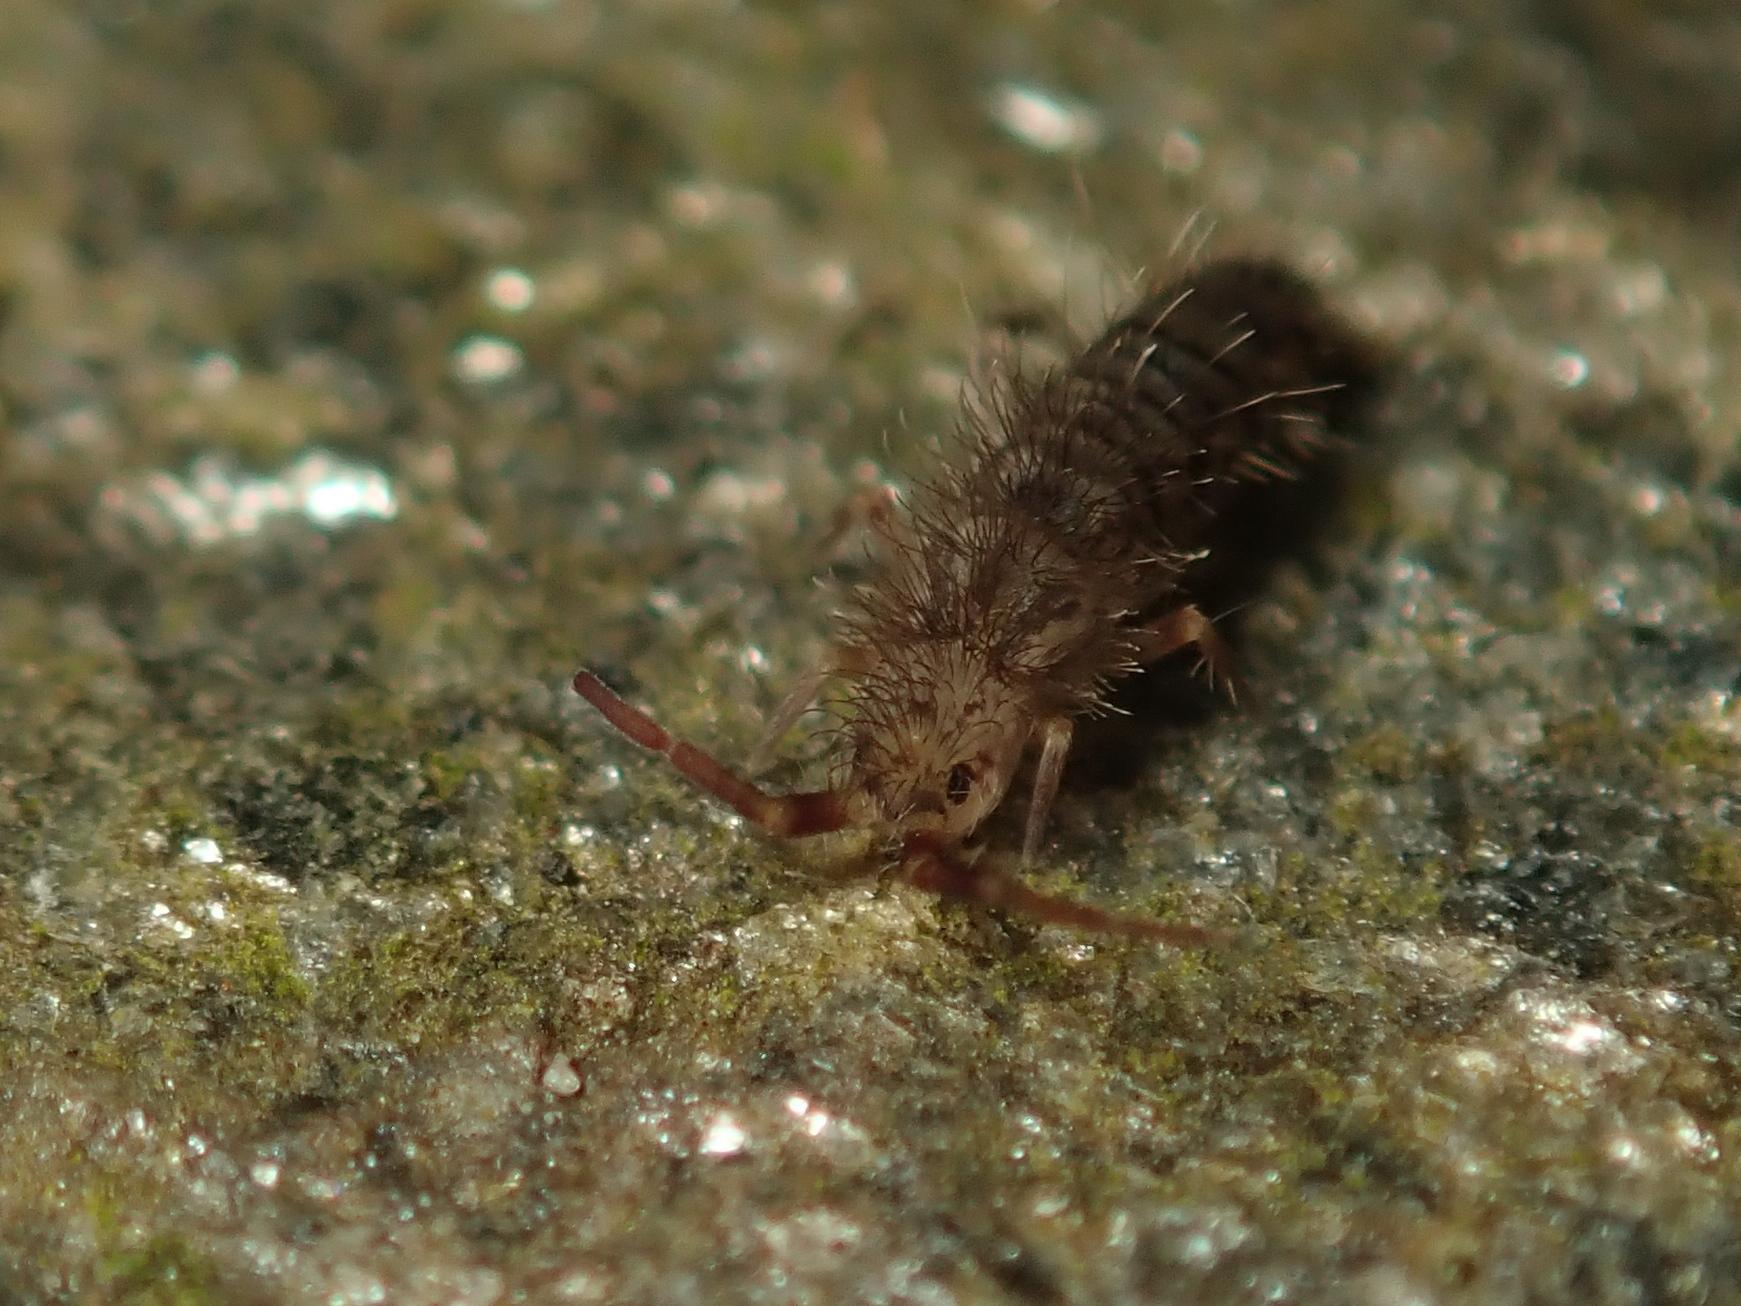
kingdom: Animalia
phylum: Arthropoda
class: Collembola
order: Entomobryomorpha
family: Orchesellidae
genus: Orchesella
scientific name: Orchesella villosa
